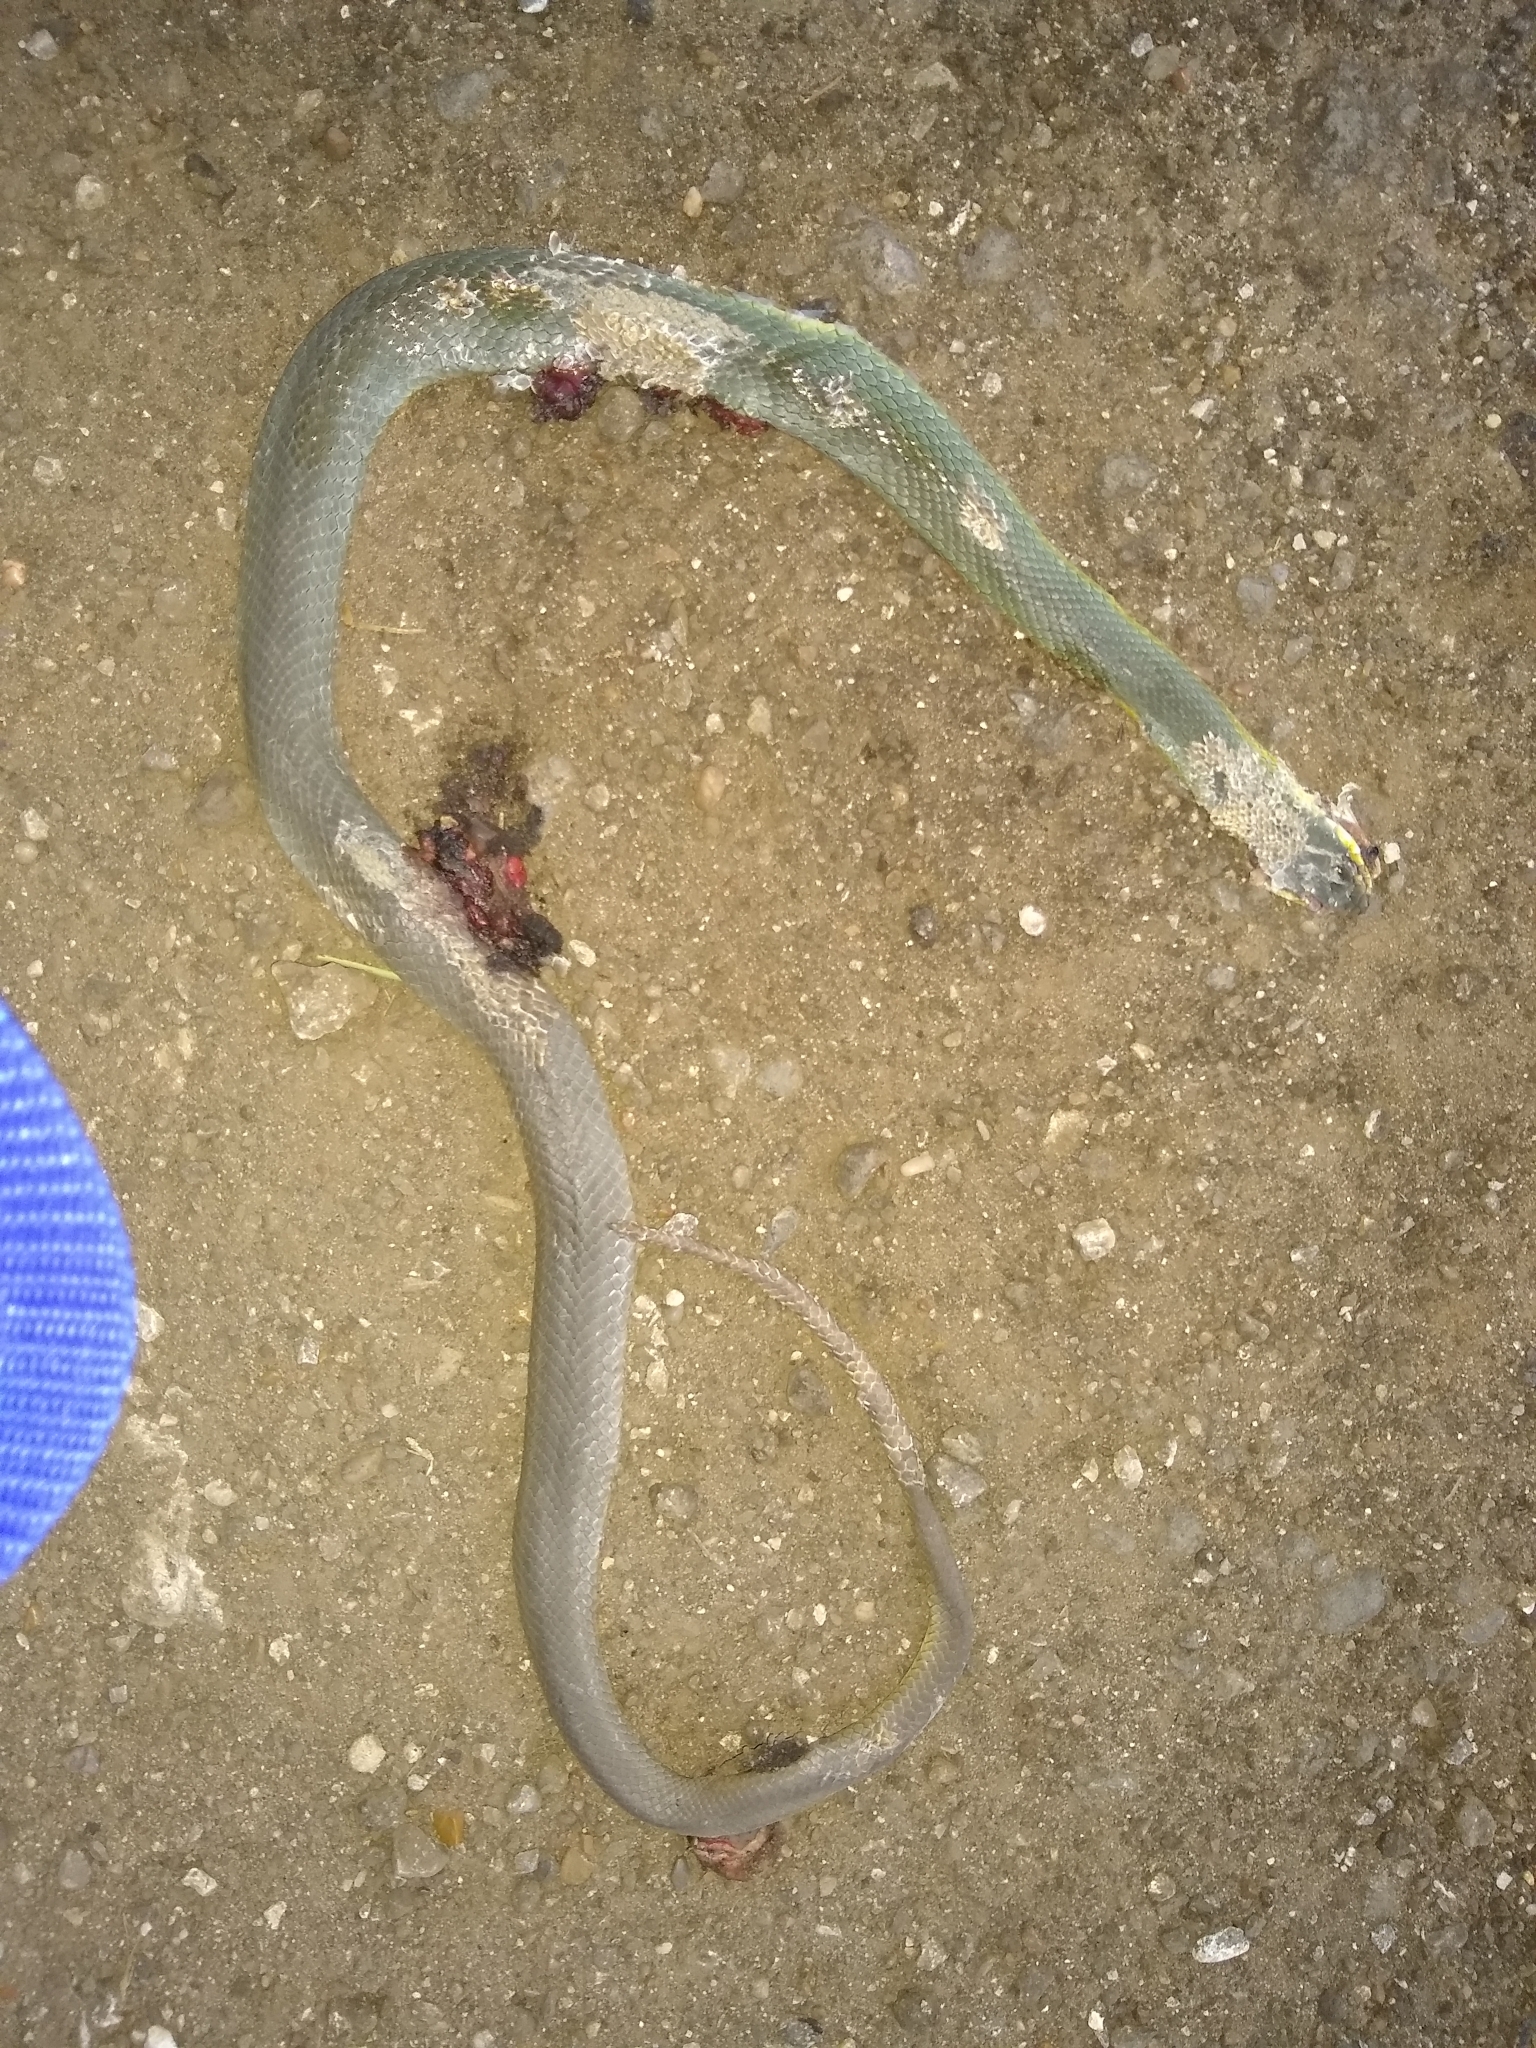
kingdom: Animalia
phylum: Chordata
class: Squamata
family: Colubridae
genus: Coluber
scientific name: Coluber constrictor
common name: Eastern racer
